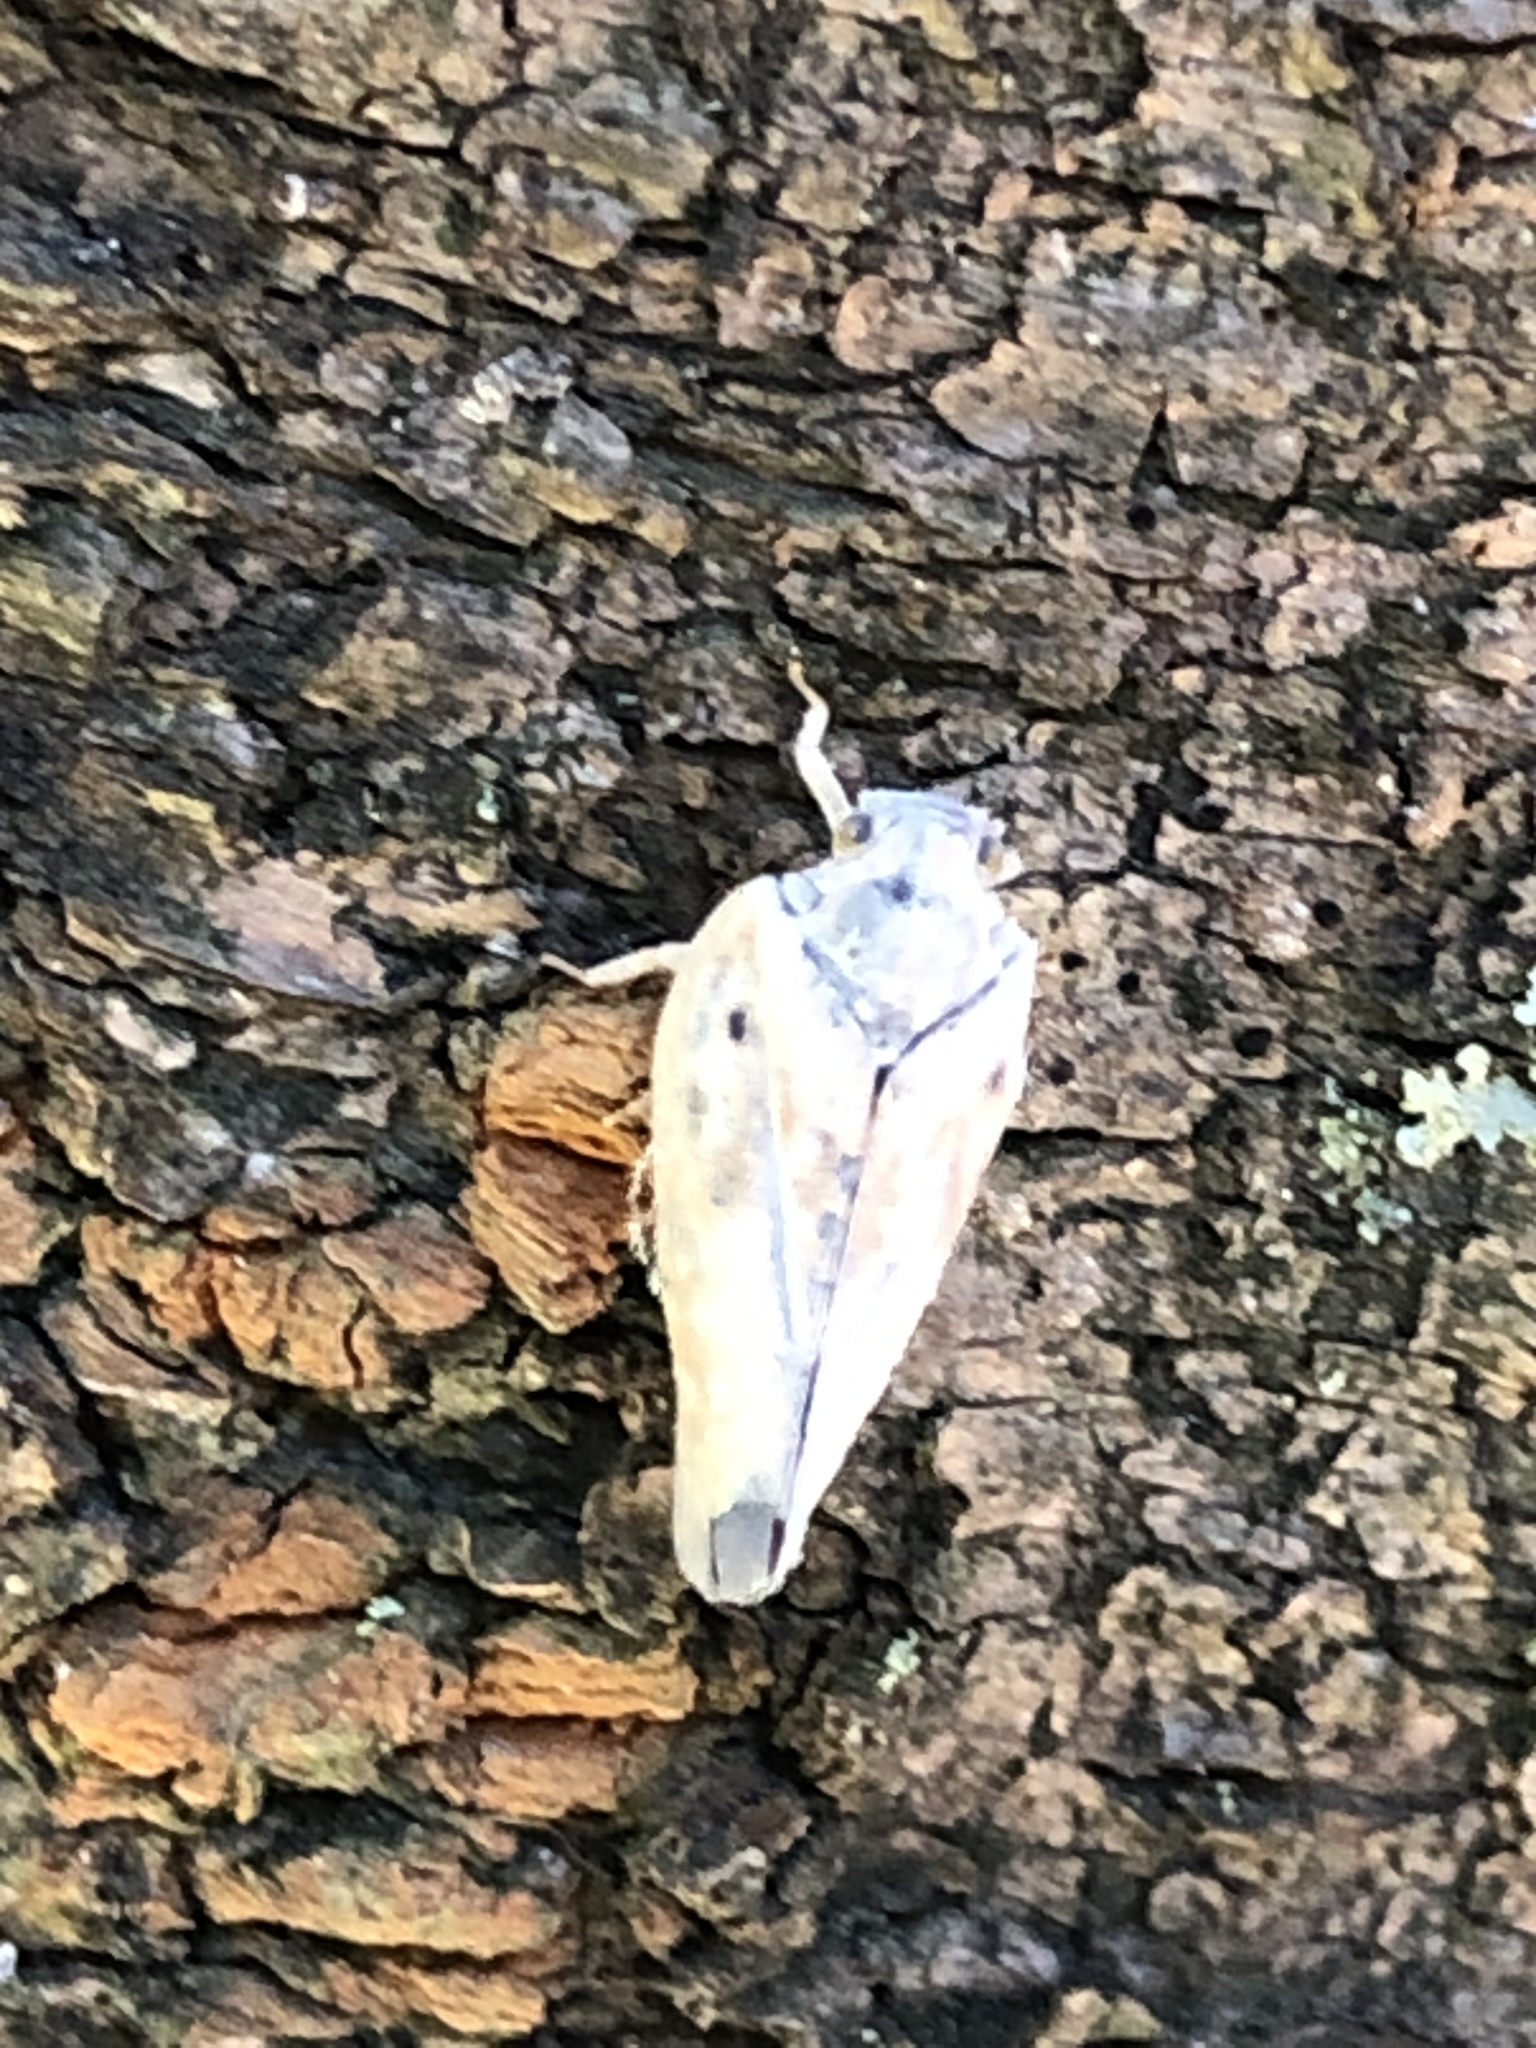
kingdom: Animalia
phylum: Arthropoda
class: Insecta
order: Hemiptera
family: Flatidae
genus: Metcalfa
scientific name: Metcalfa pruinosa
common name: Citrus flatid planthopper
